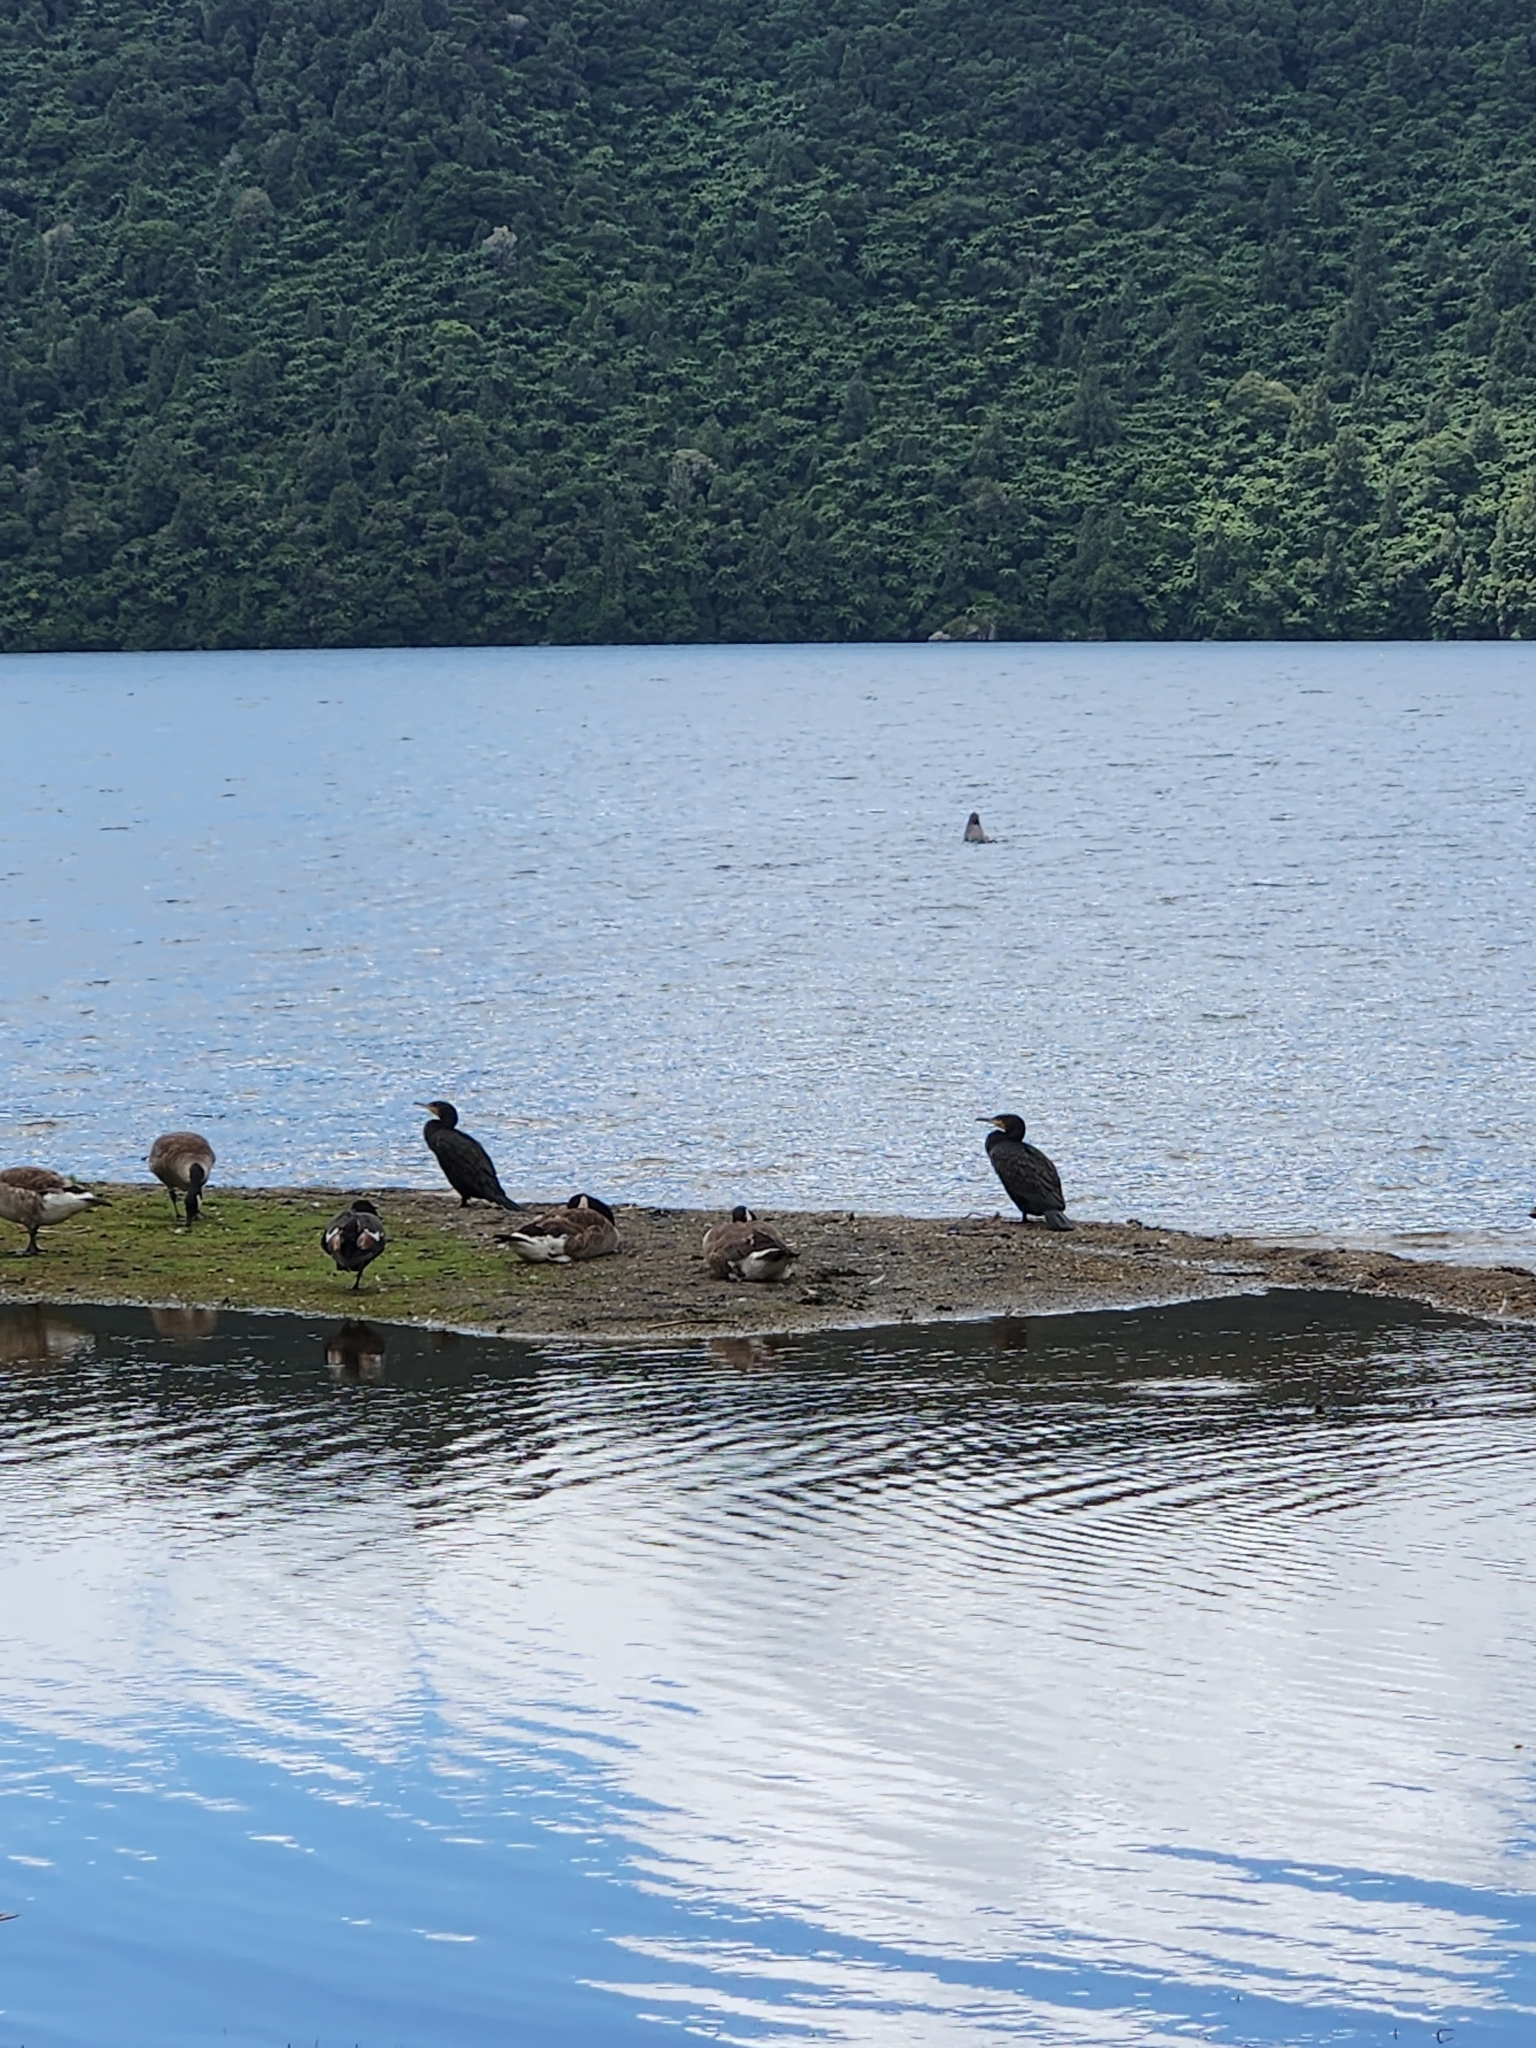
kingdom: Animalia
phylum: Chordata
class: Aves
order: Suliformes
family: Phalacrocoracidae
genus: Phalacrocorax
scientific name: Phalacrocorax carbo
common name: Great cormorant
